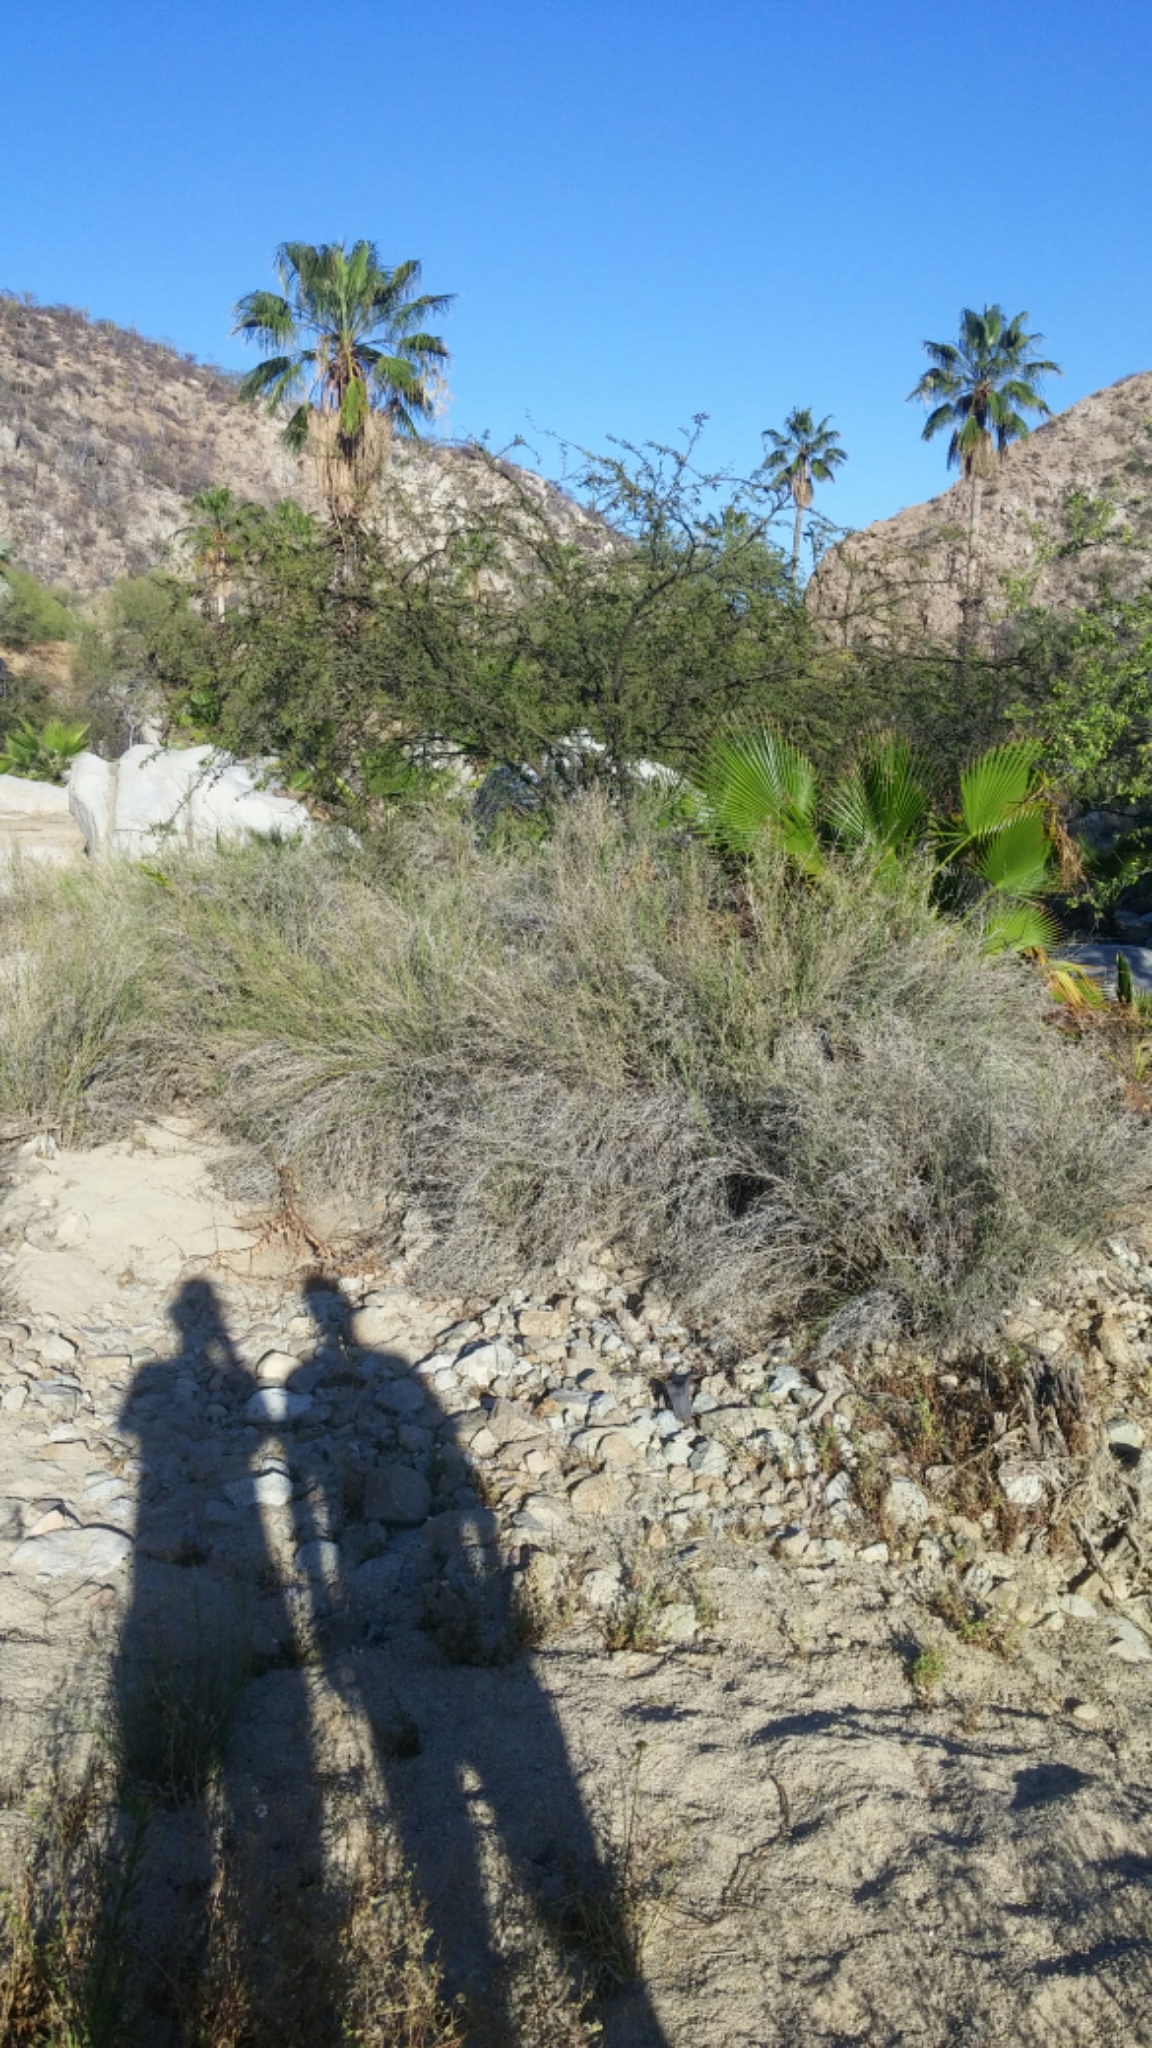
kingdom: Plantae
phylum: Tracheophyta
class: Liliopsida
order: Arecales
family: Arecaceae
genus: Washingtonia
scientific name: Washingtonia robusta
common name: Mexican fan palm
